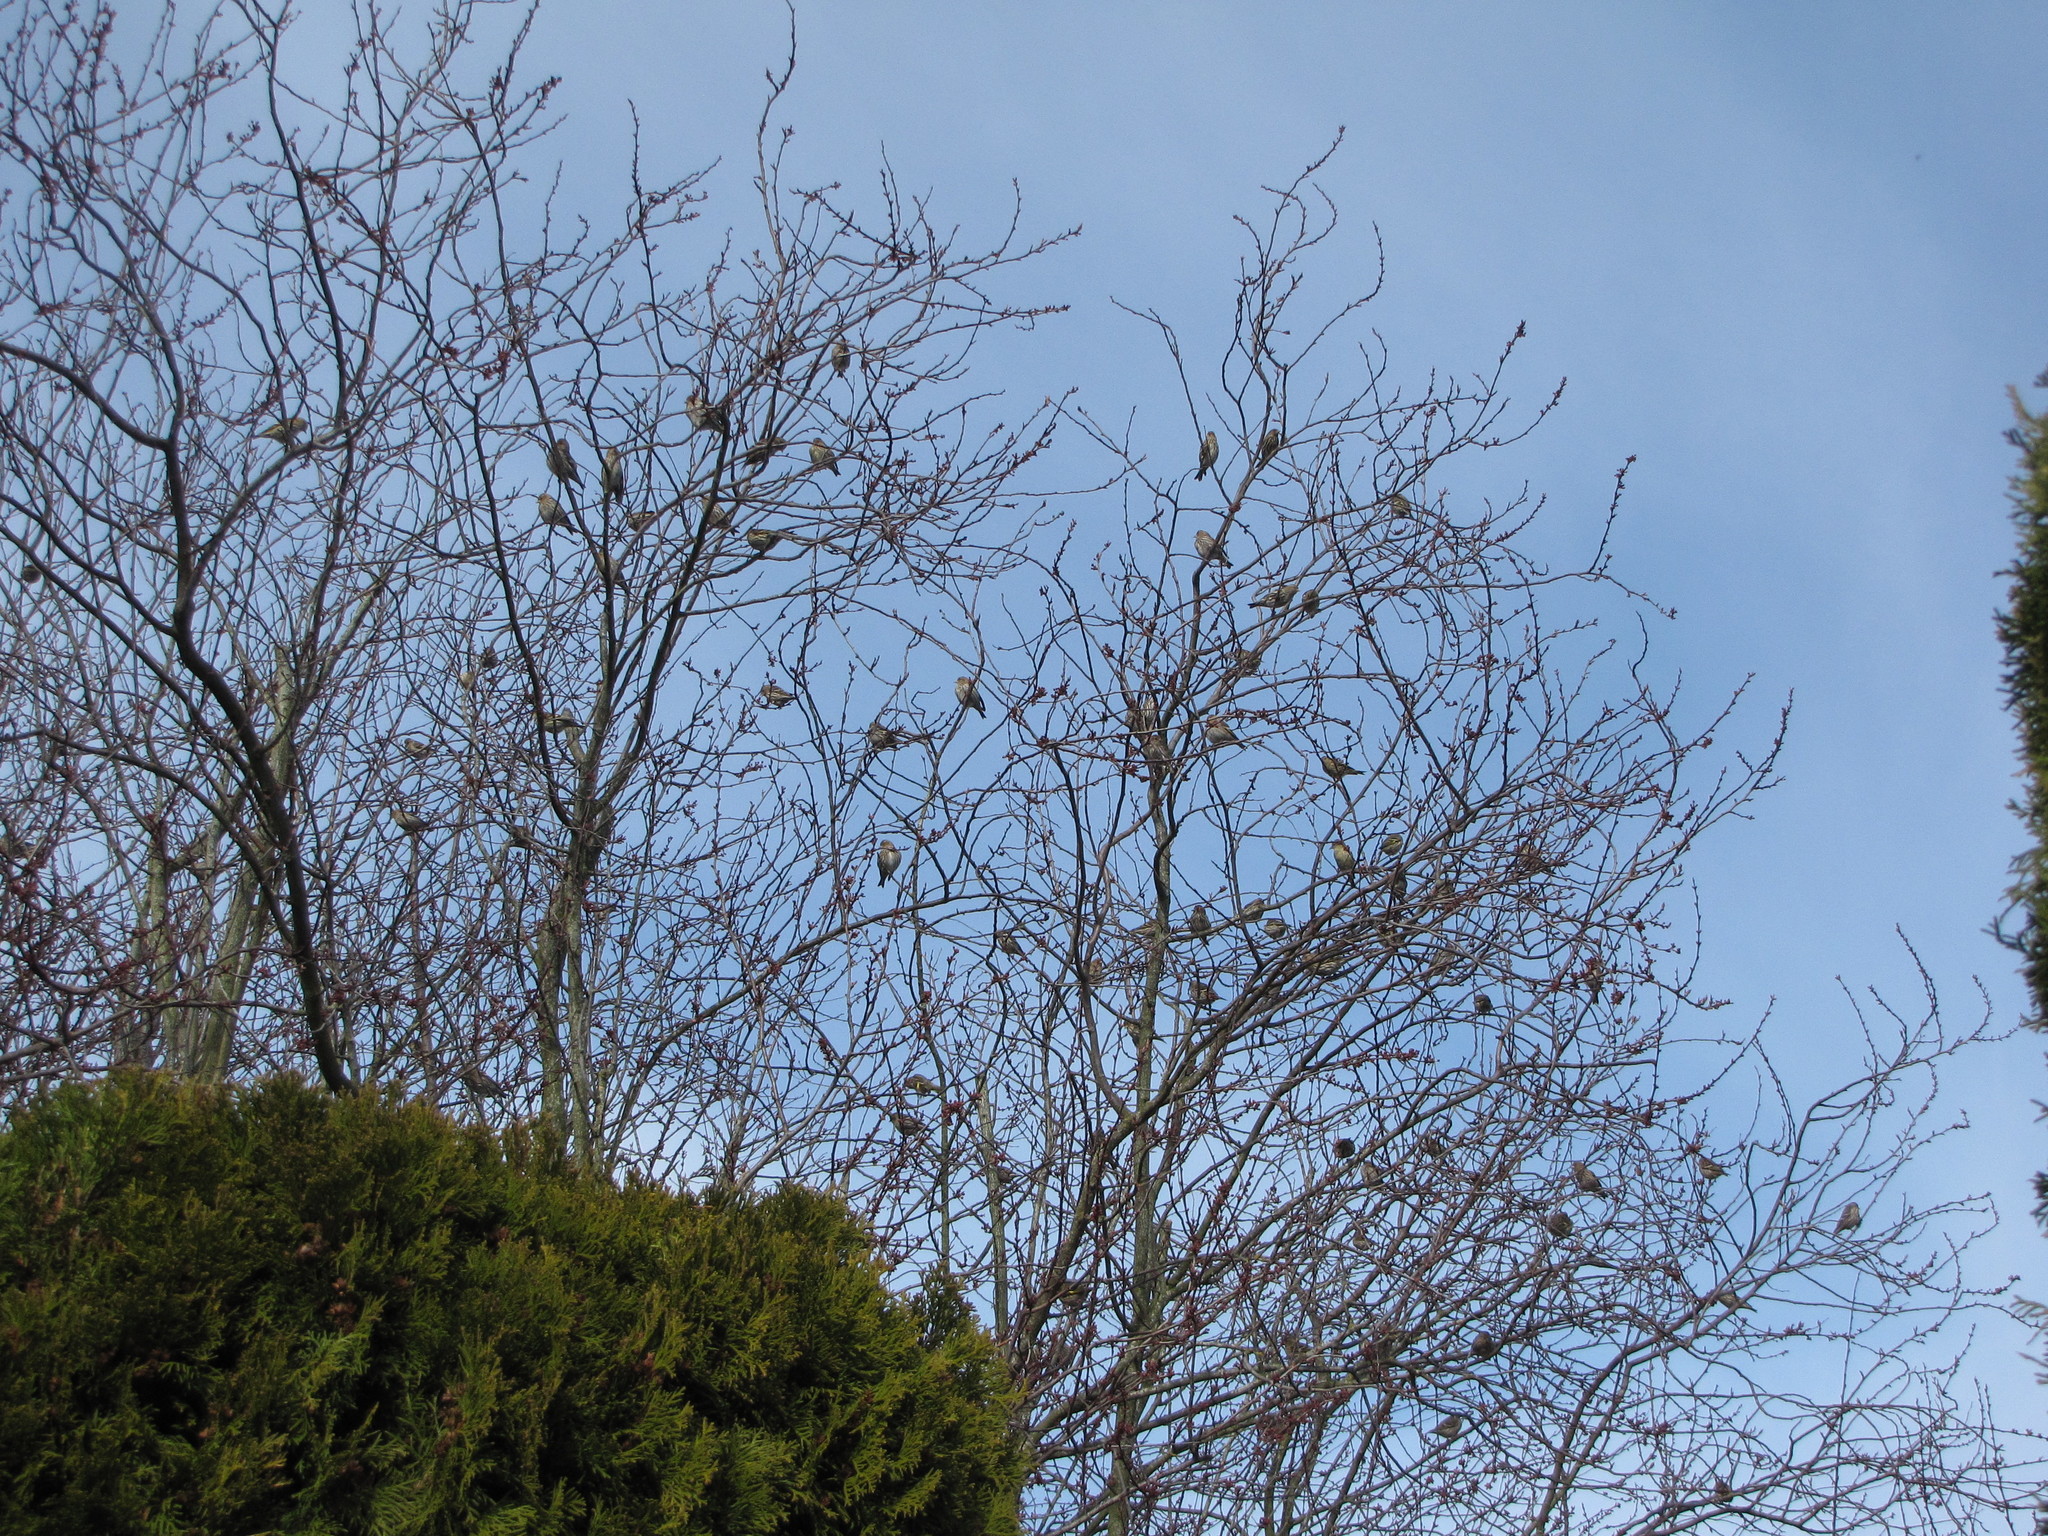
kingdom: Animalia
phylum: Chordata
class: Aves
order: Passeriformes
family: Fringillidae
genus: Spinus
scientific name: Spinus pinus
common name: Pine siskin
